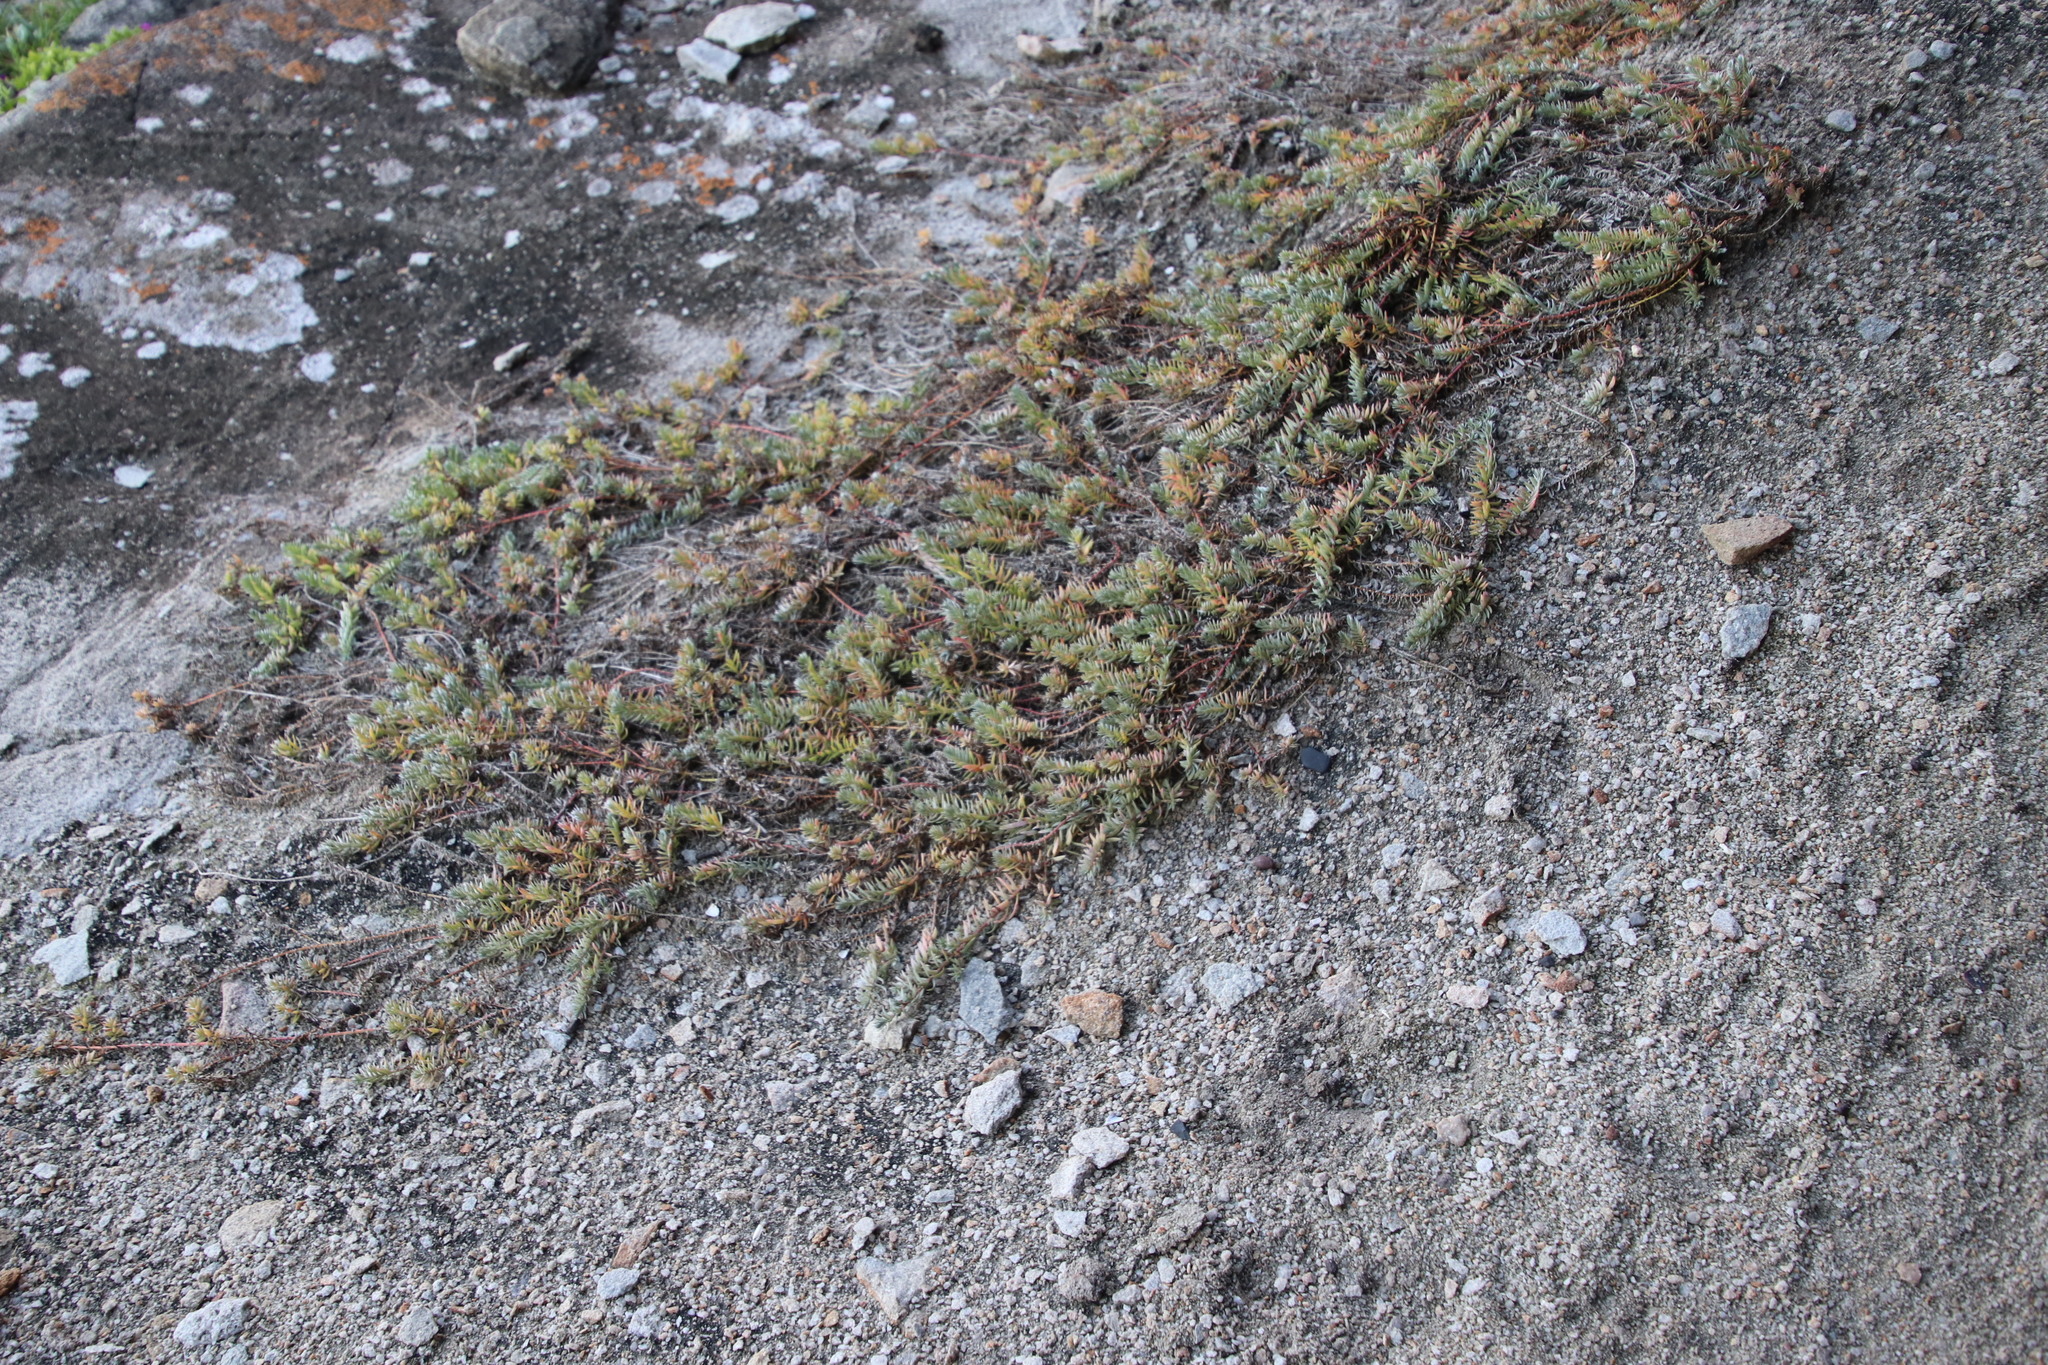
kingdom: Plantae
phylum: Tracheophyta
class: Magnoliopsida
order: Caryophyllales
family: Amaranthaceae
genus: Chenolea
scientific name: Chenolea diffusa
